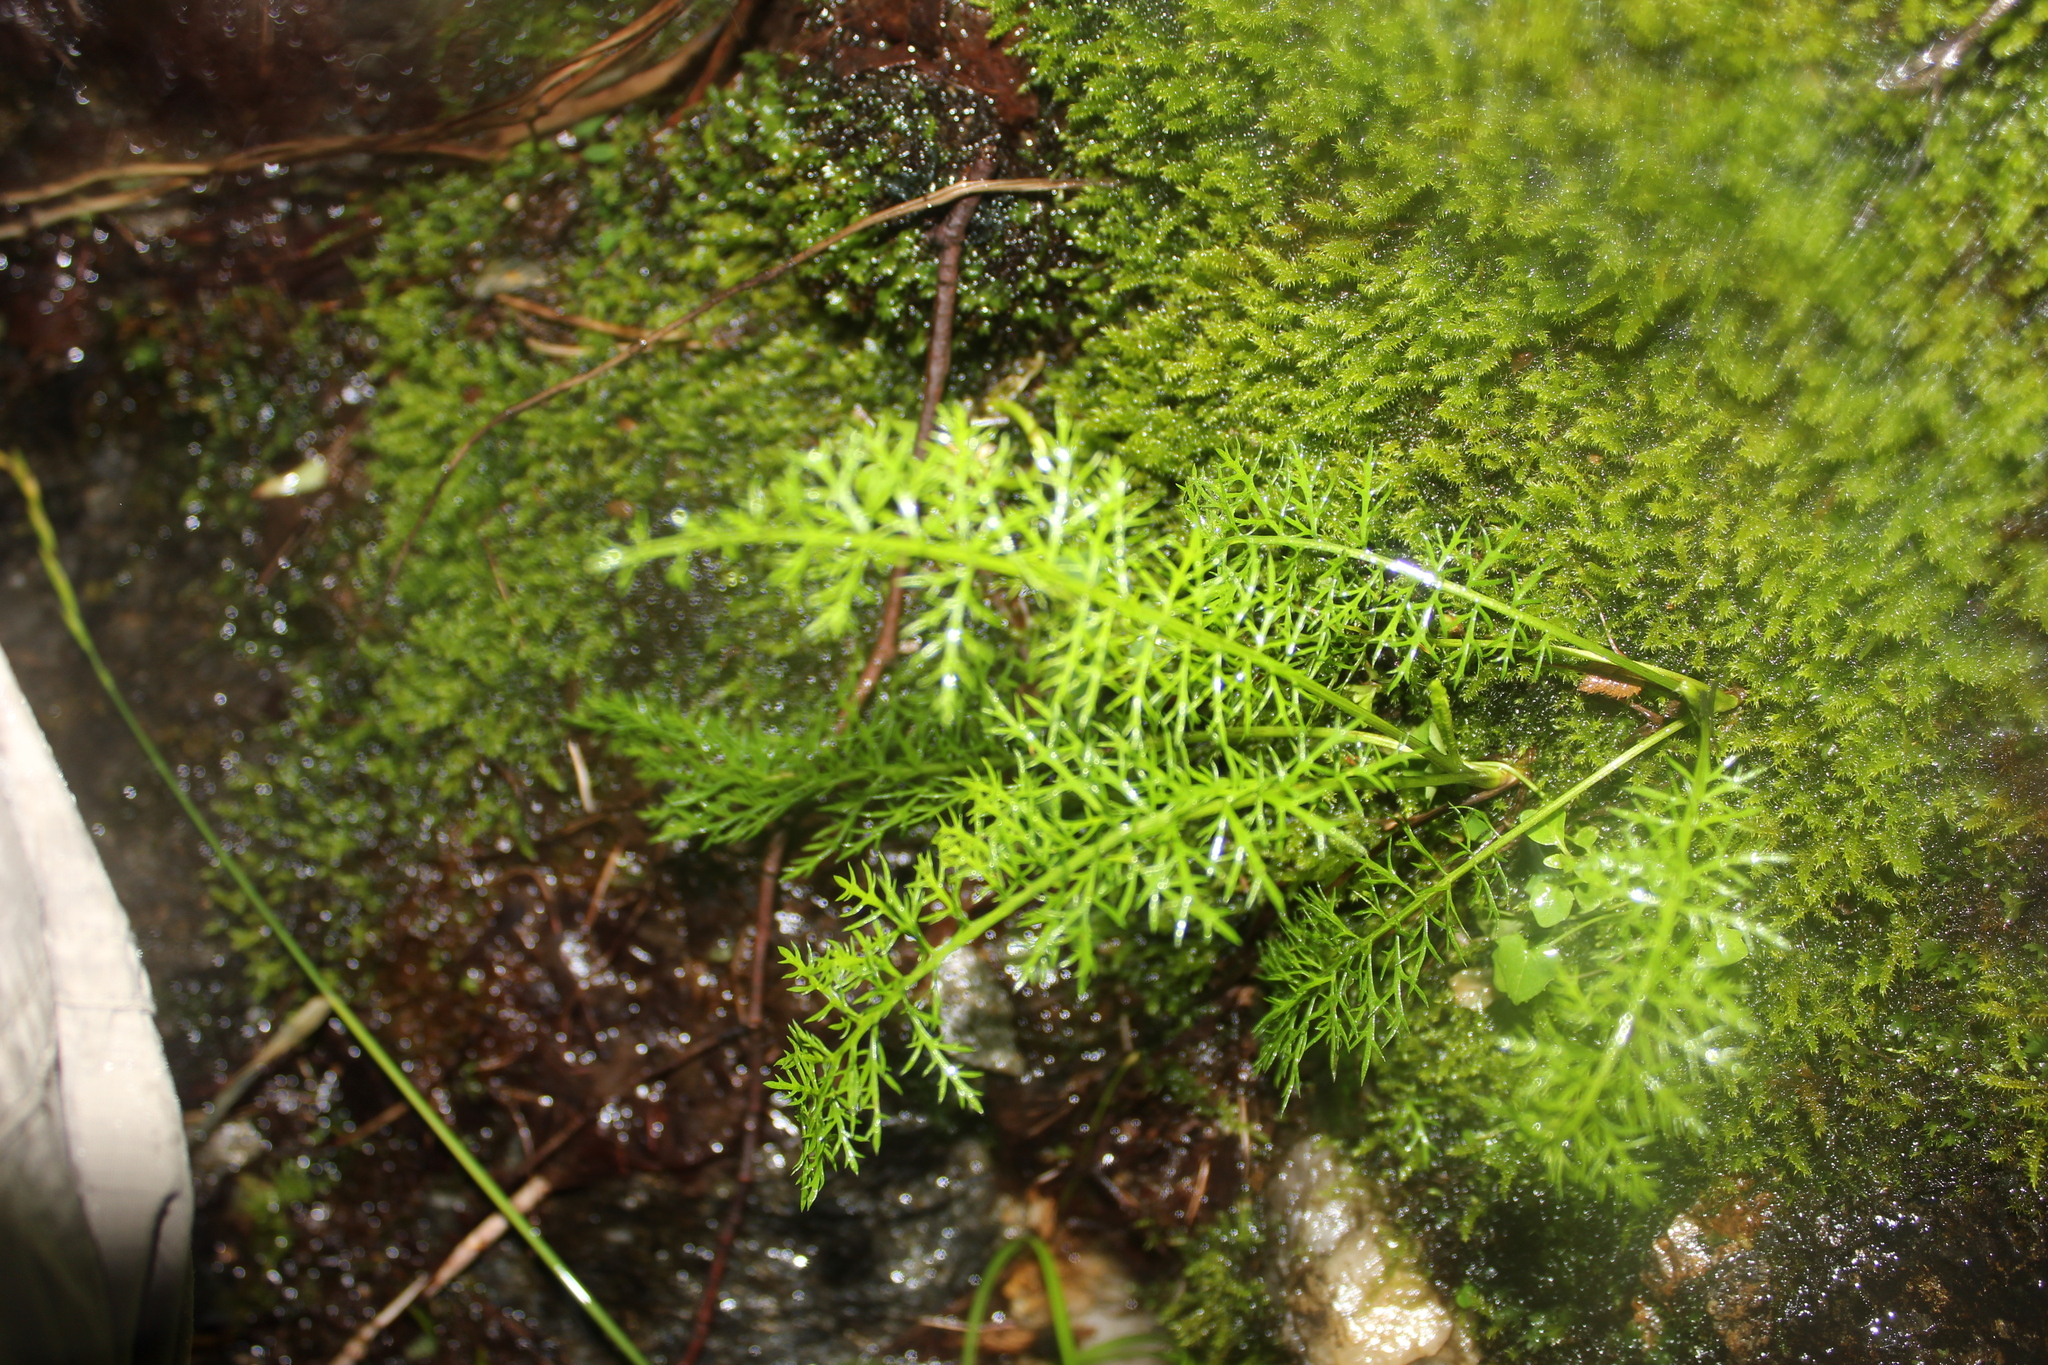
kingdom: Plantae
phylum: Tracheophyta
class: Magnoliopsida
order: Asterales
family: Asteraceae
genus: Achillea
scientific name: Achillea millefolium
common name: Yarrow
